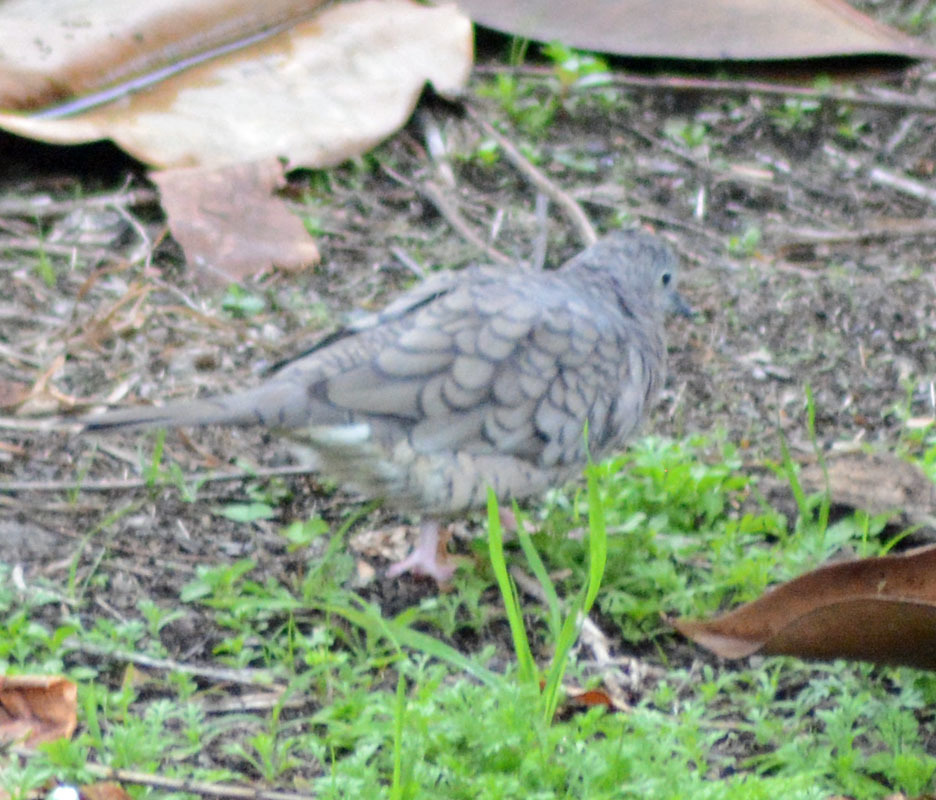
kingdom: Animalia
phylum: Chordata
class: Aves
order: Columbiformes
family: Columbidae
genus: Columbina
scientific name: Columbina inca
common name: Inca dove
